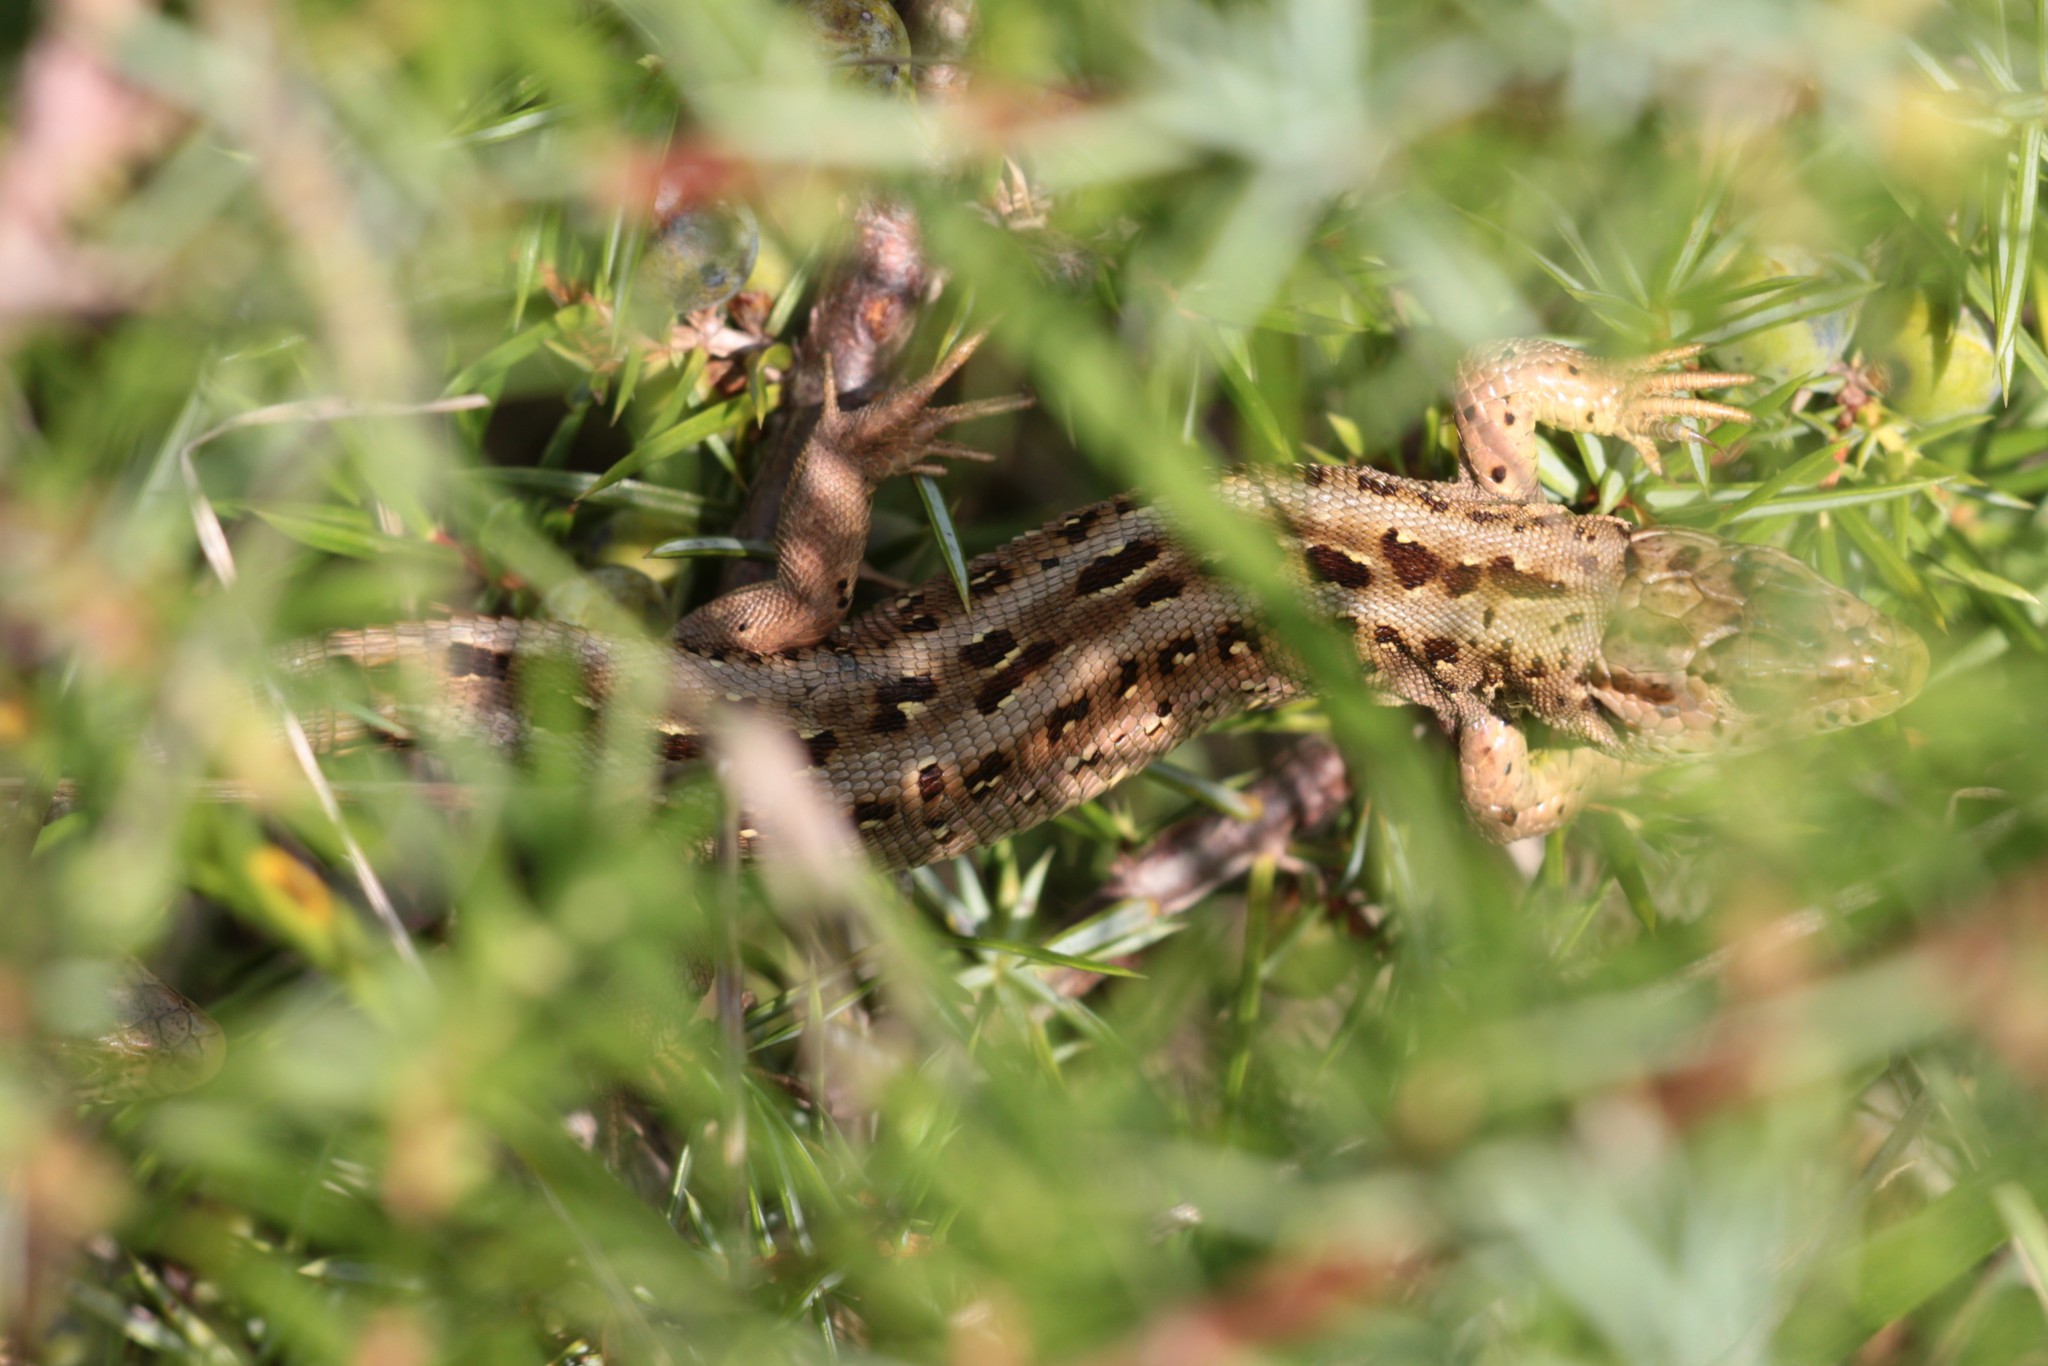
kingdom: Animalia
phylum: Chordata
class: Squamata
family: Lacertidae
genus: Lacerta
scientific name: Lacerta agilis
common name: Sand lizard
